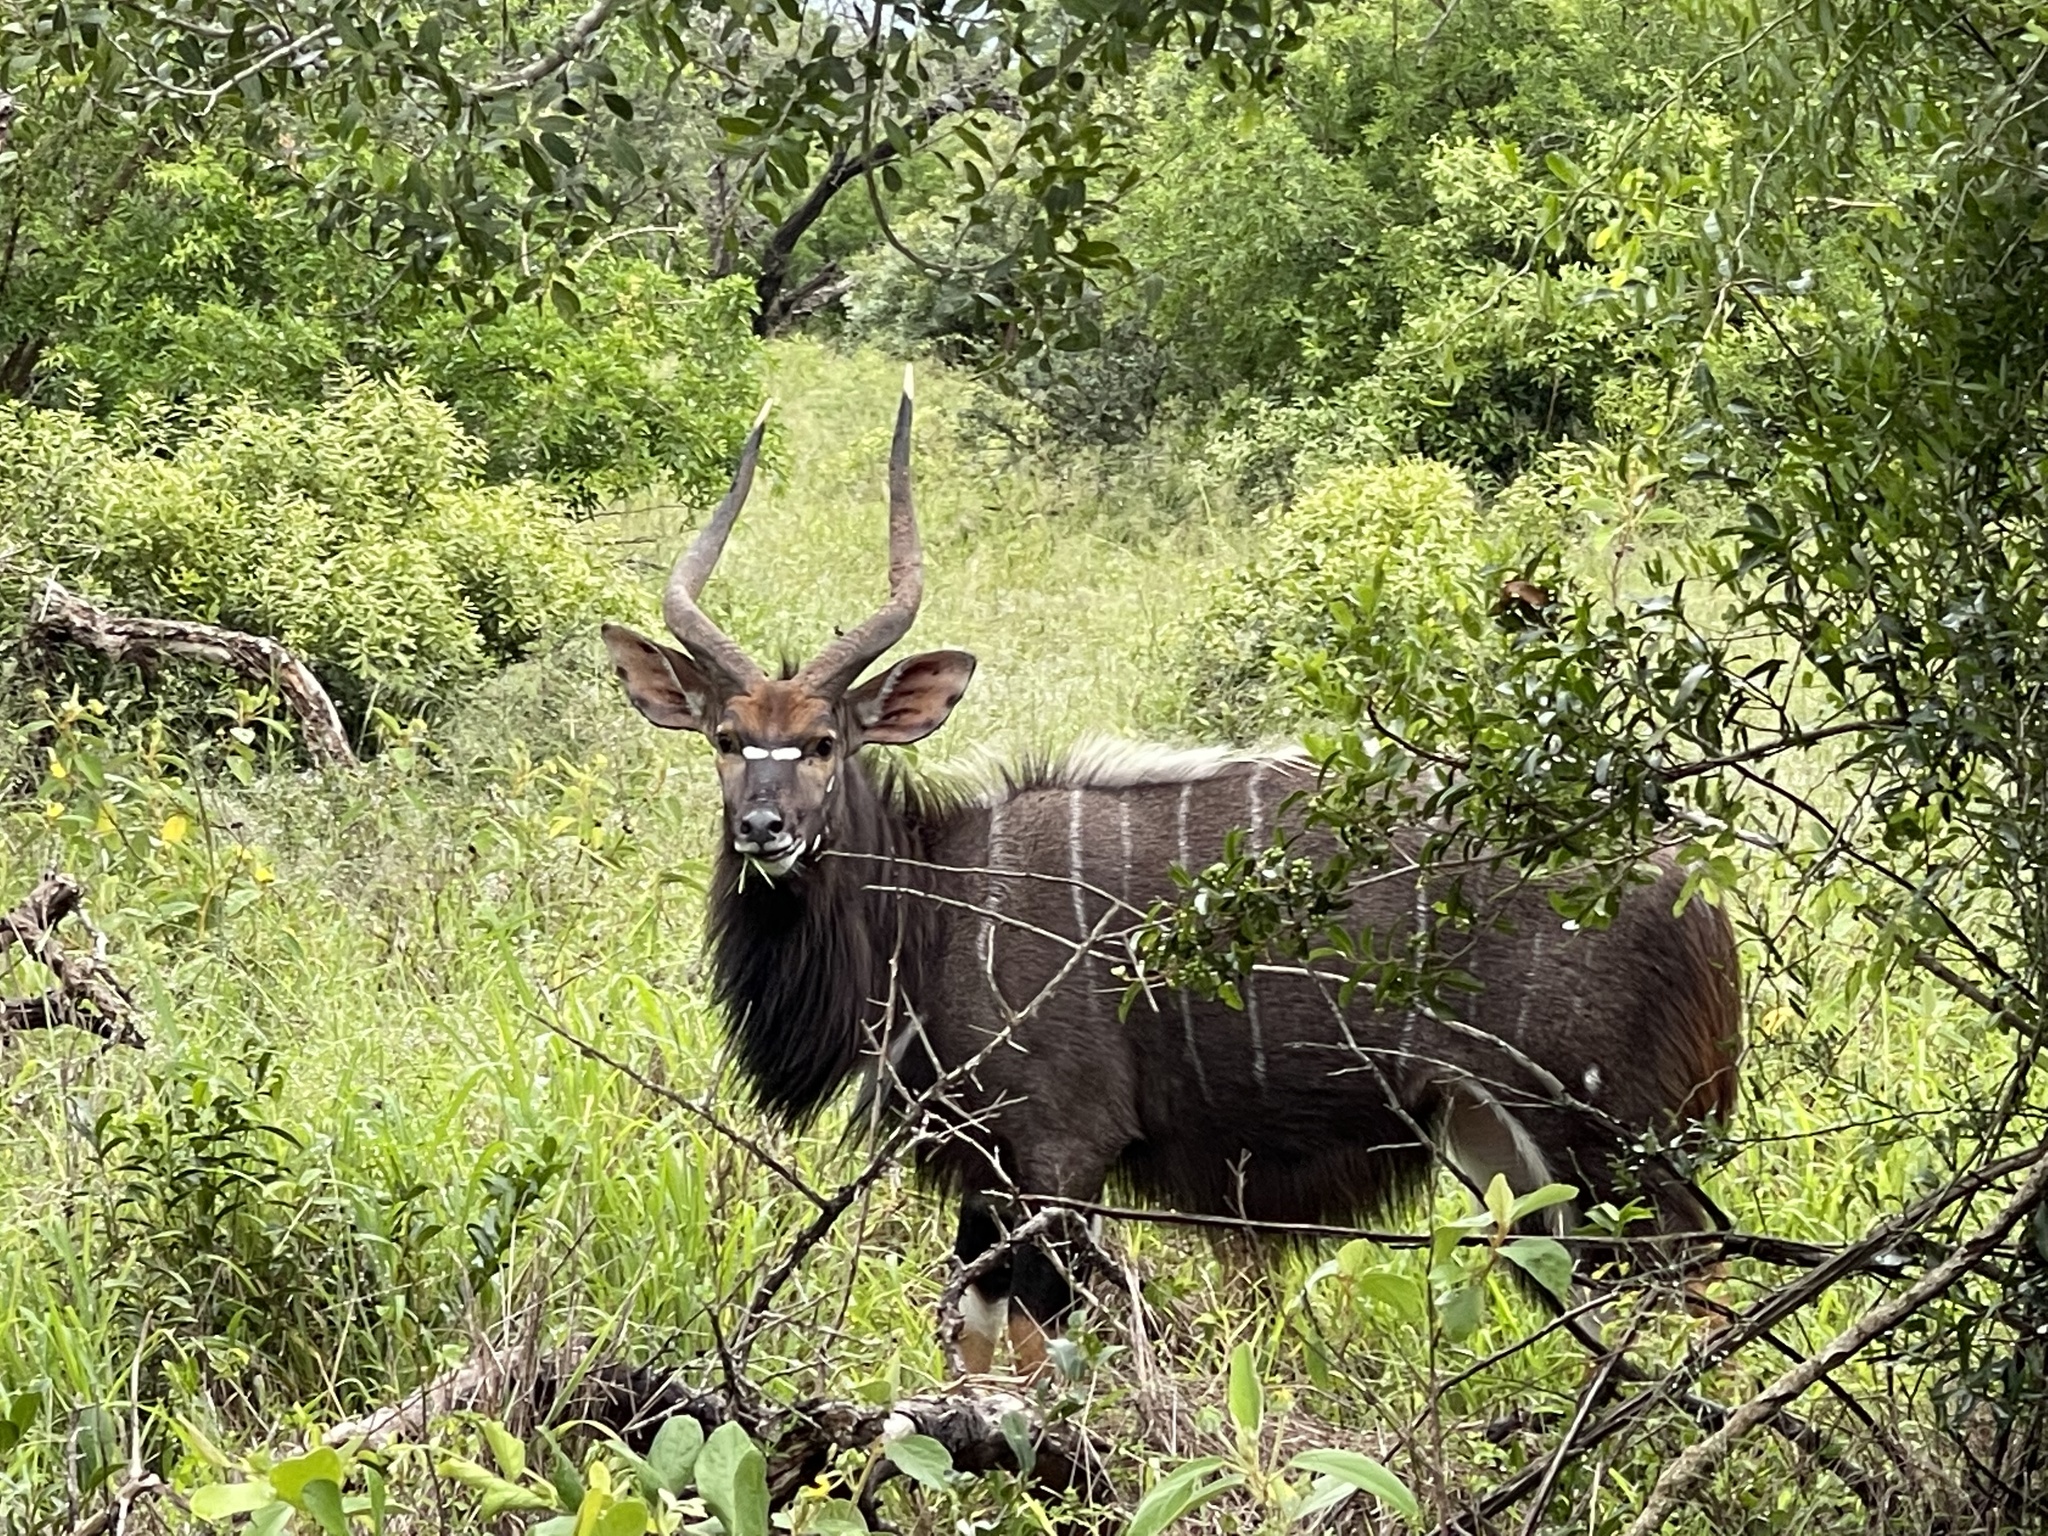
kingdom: Animalia
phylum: Chordata
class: Mammalia
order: Artiodactyla
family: Bovidae
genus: Tragelaphus
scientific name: Tragelaphus angasii
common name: Nyala
